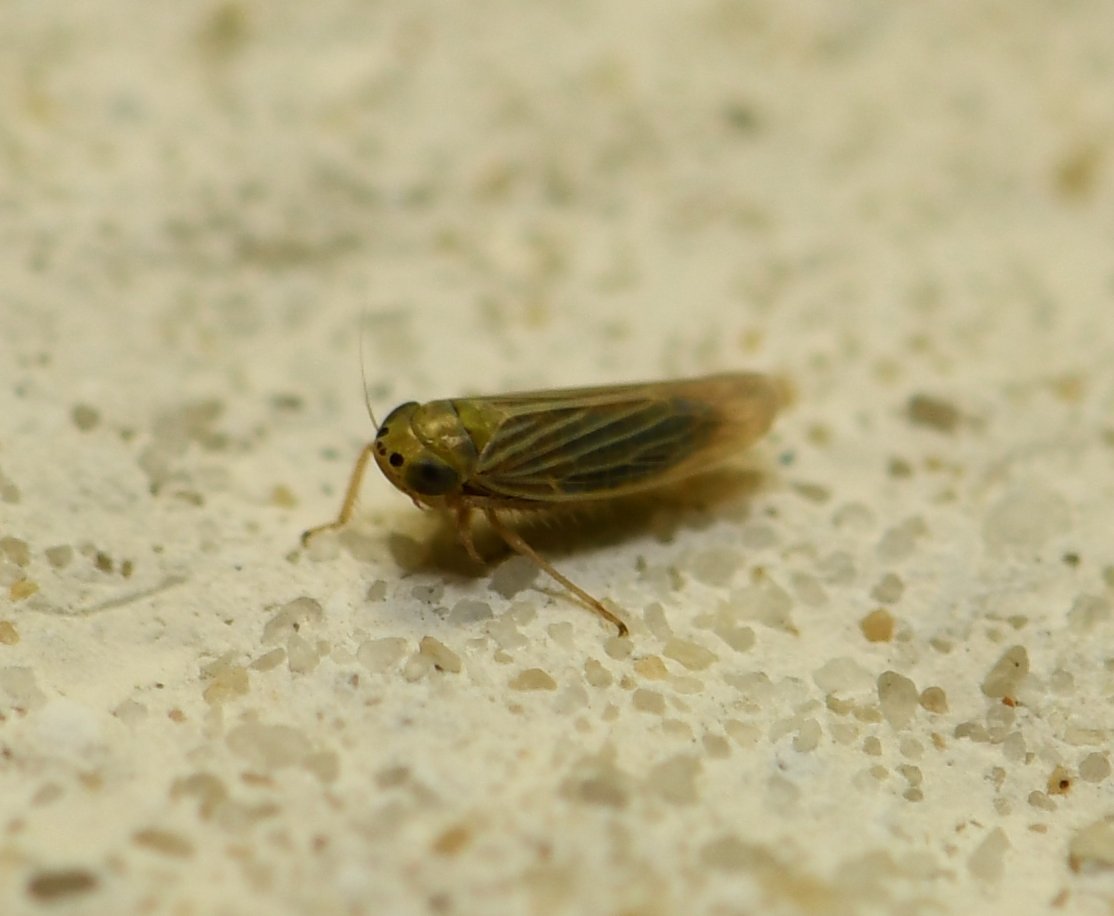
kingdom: Animalia
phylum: Arthropoda
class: Insecta
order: Hemiptera
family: Cicadellidae
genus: Graminella
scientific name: Graminella cognita
